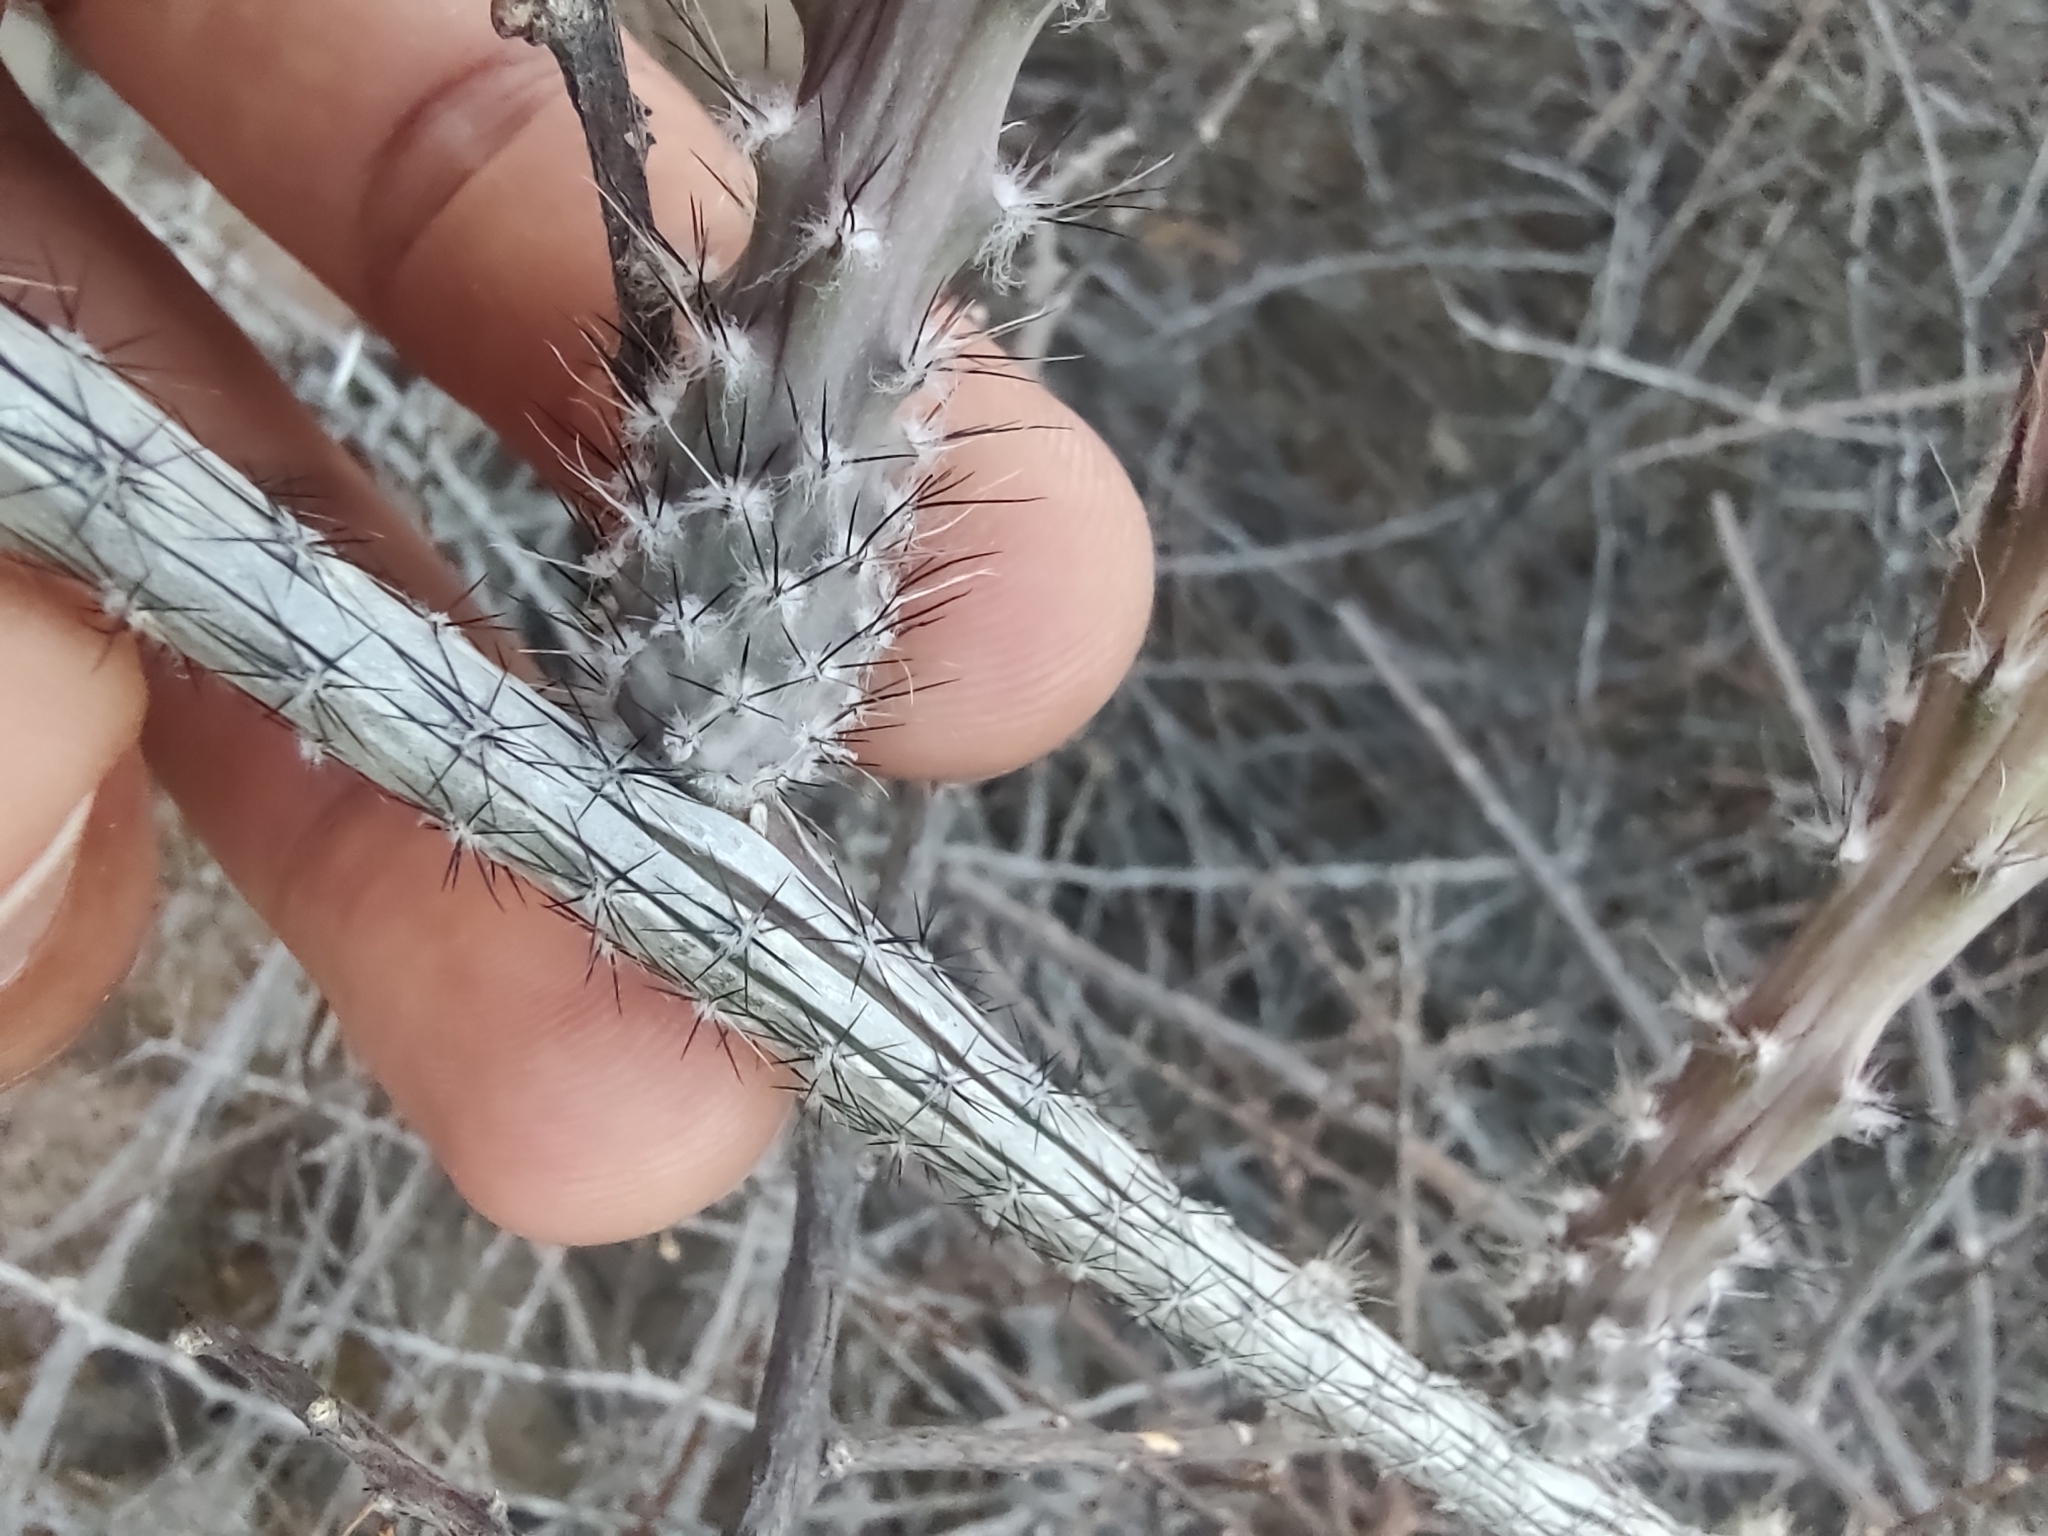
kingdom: Plantae
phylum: Tracheophyta
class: Magnoliopsida
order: Caryophyllales
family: Cactaceae
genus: Peniocereus
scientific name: Peniocereus striatus
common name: Gearstem cactus
